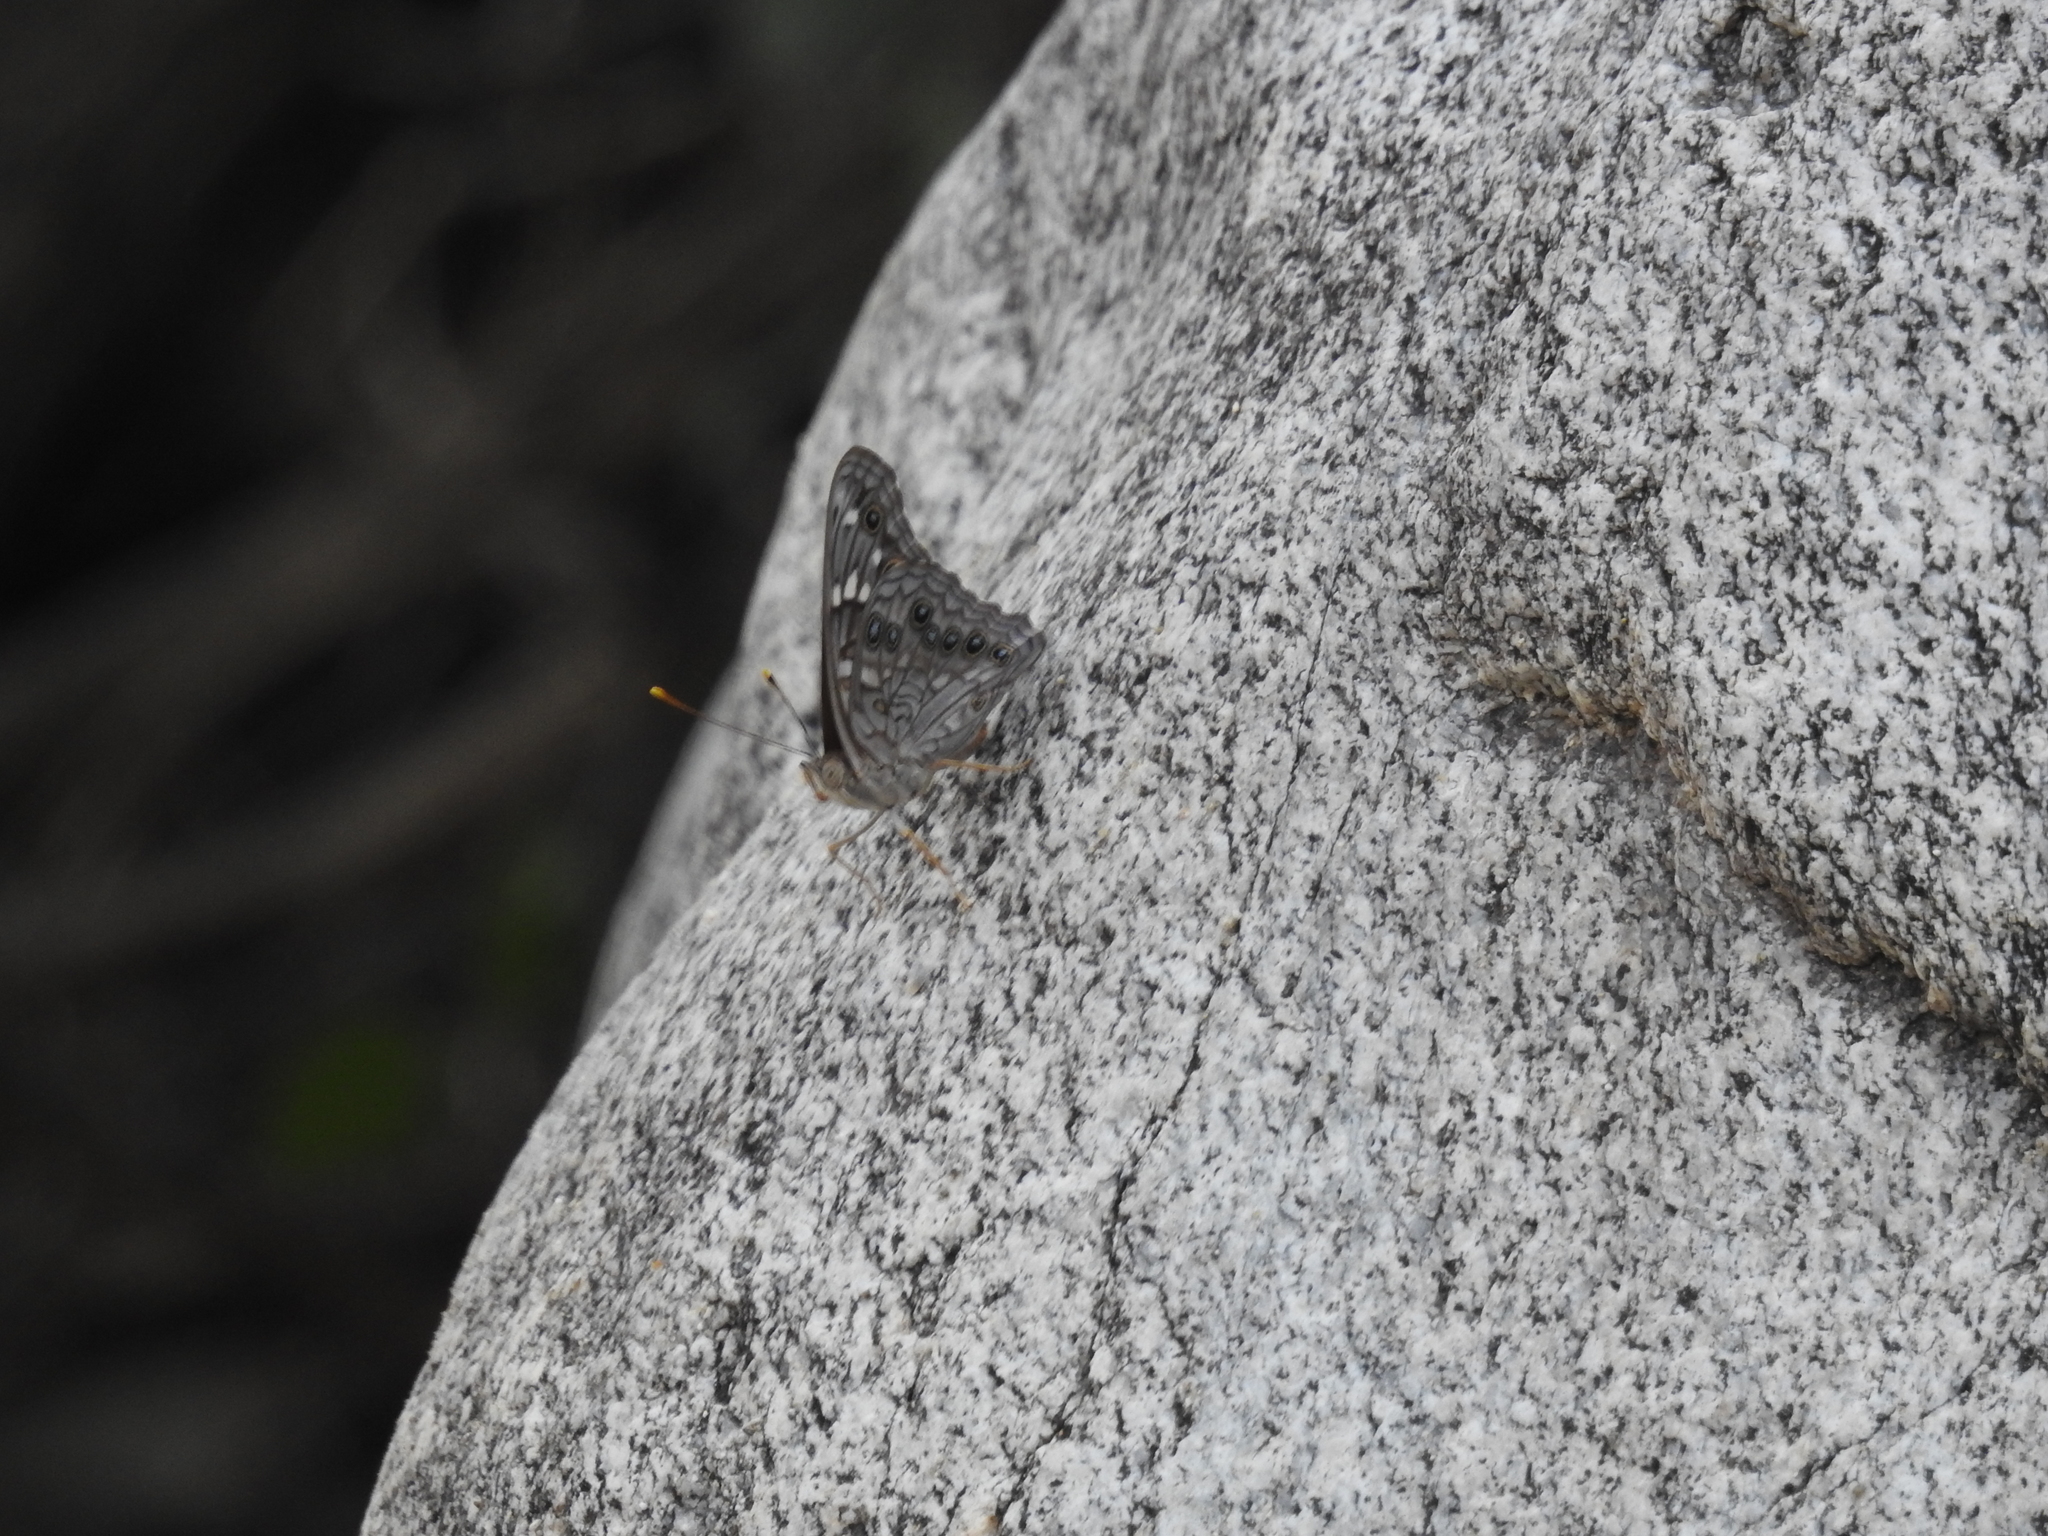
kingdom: Animalia
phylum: Arthropoda
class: Insecta
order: Lepidoptera
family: Nymphalidae
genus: Asterocampa
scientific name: Asterocampa leilia
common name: Empress leilia
